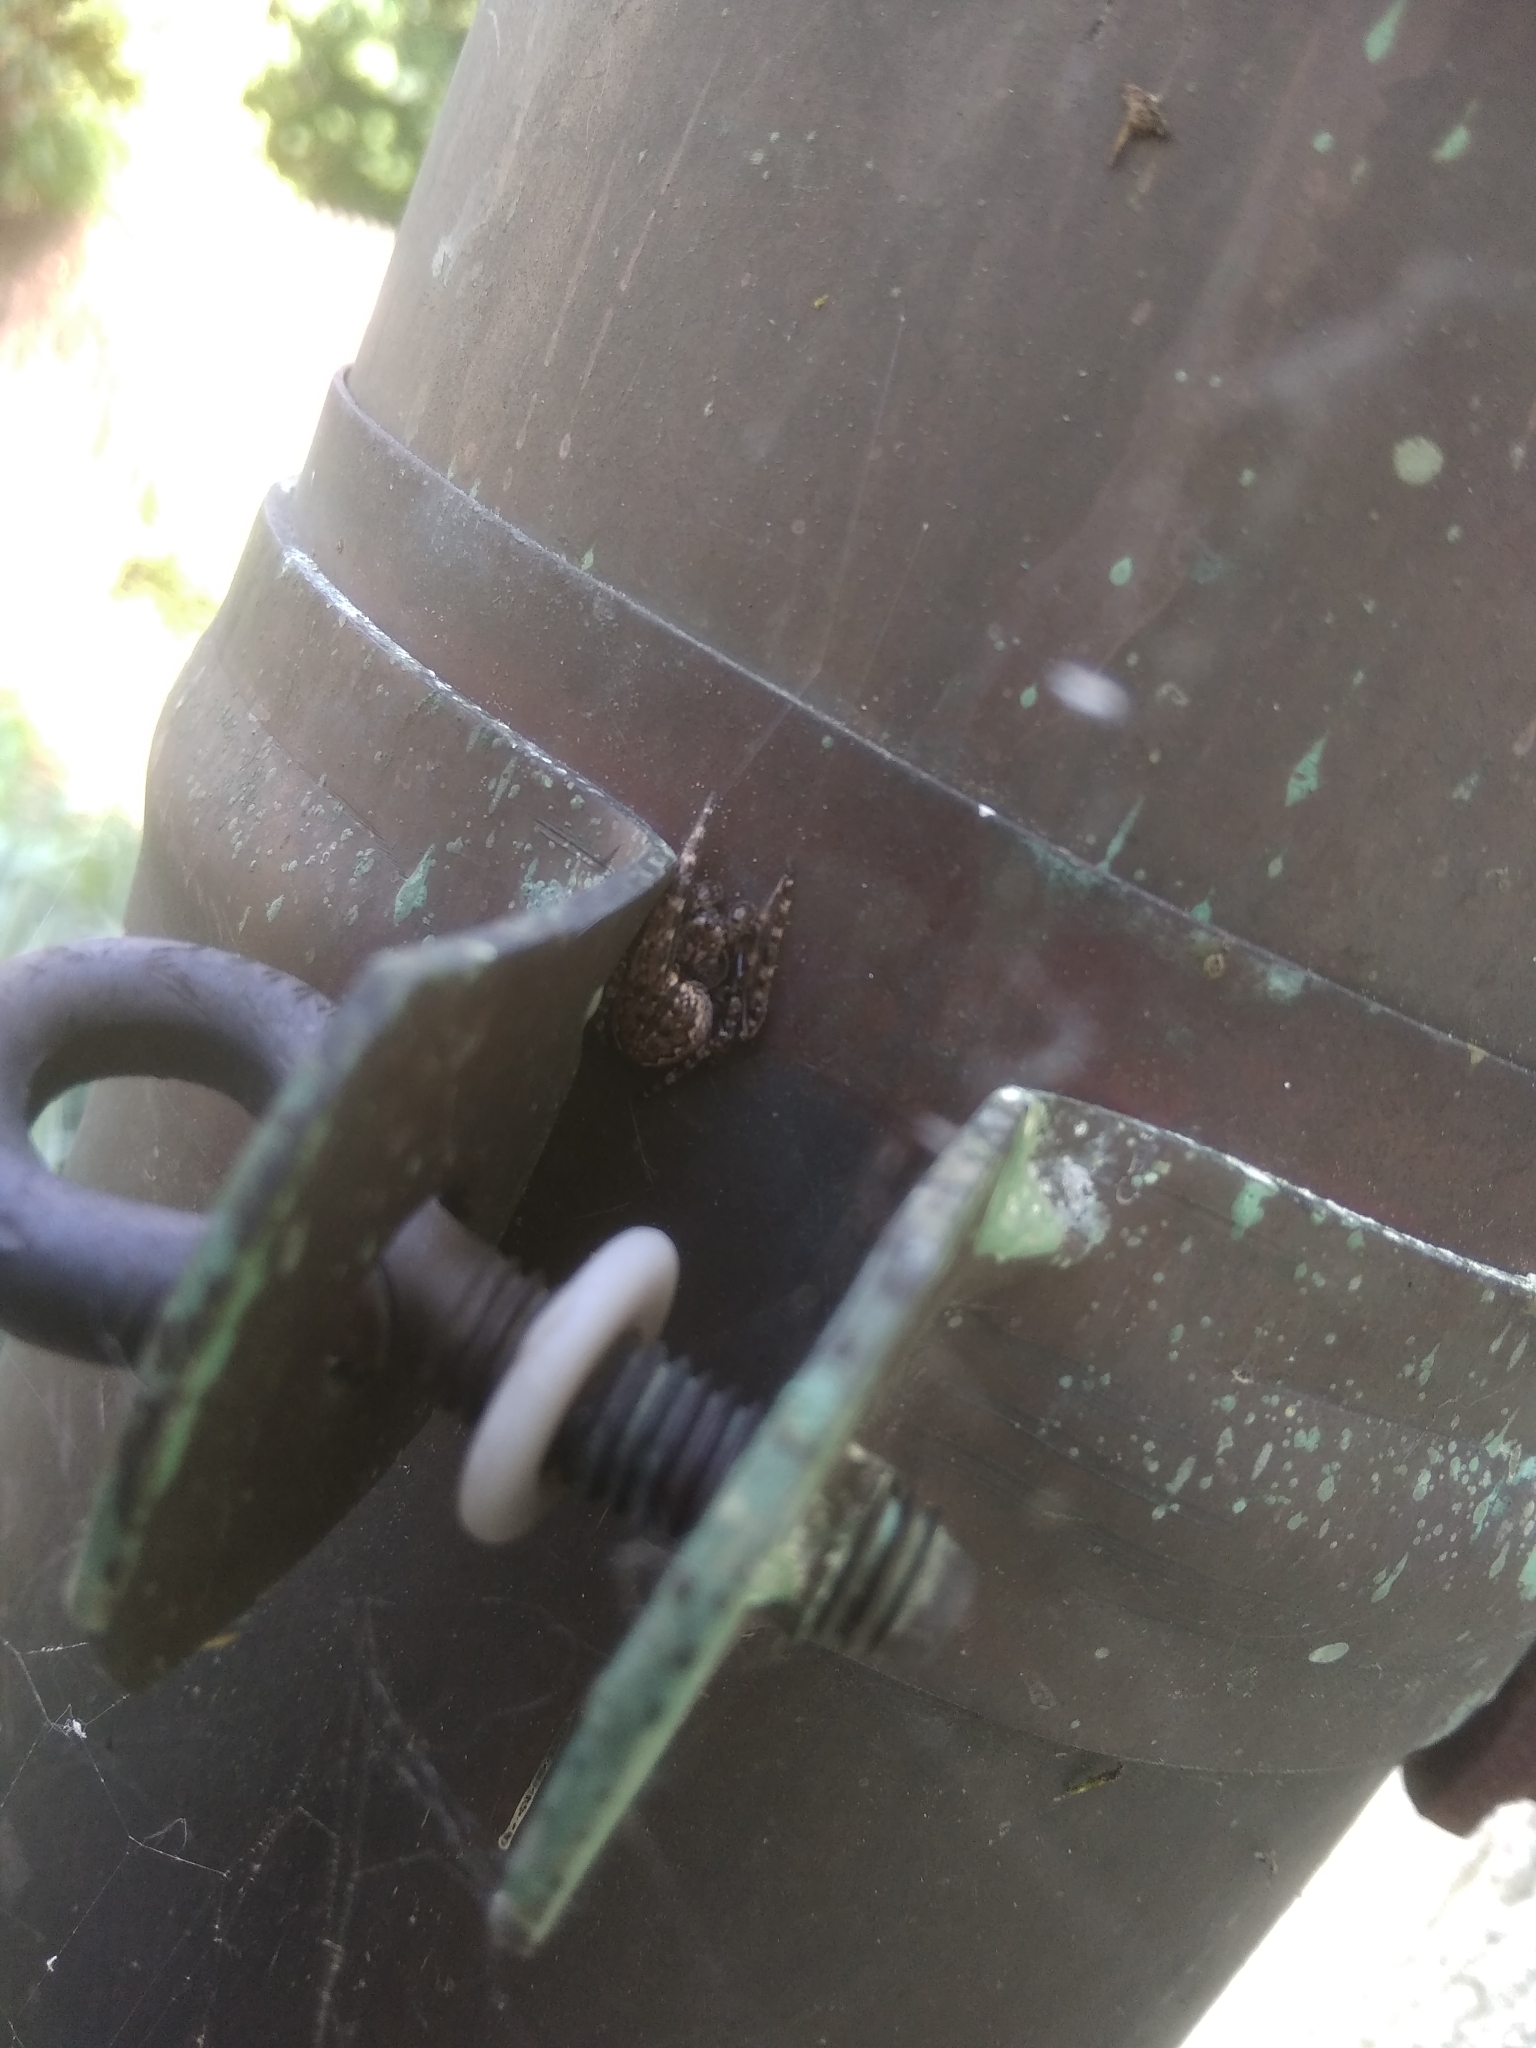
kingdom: Animalia
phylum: Arthropoda
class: Arachnida
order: Araneae
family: Araneidae
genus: Nuctenea
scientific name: Nuctenea umbratica
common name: Toad spider
